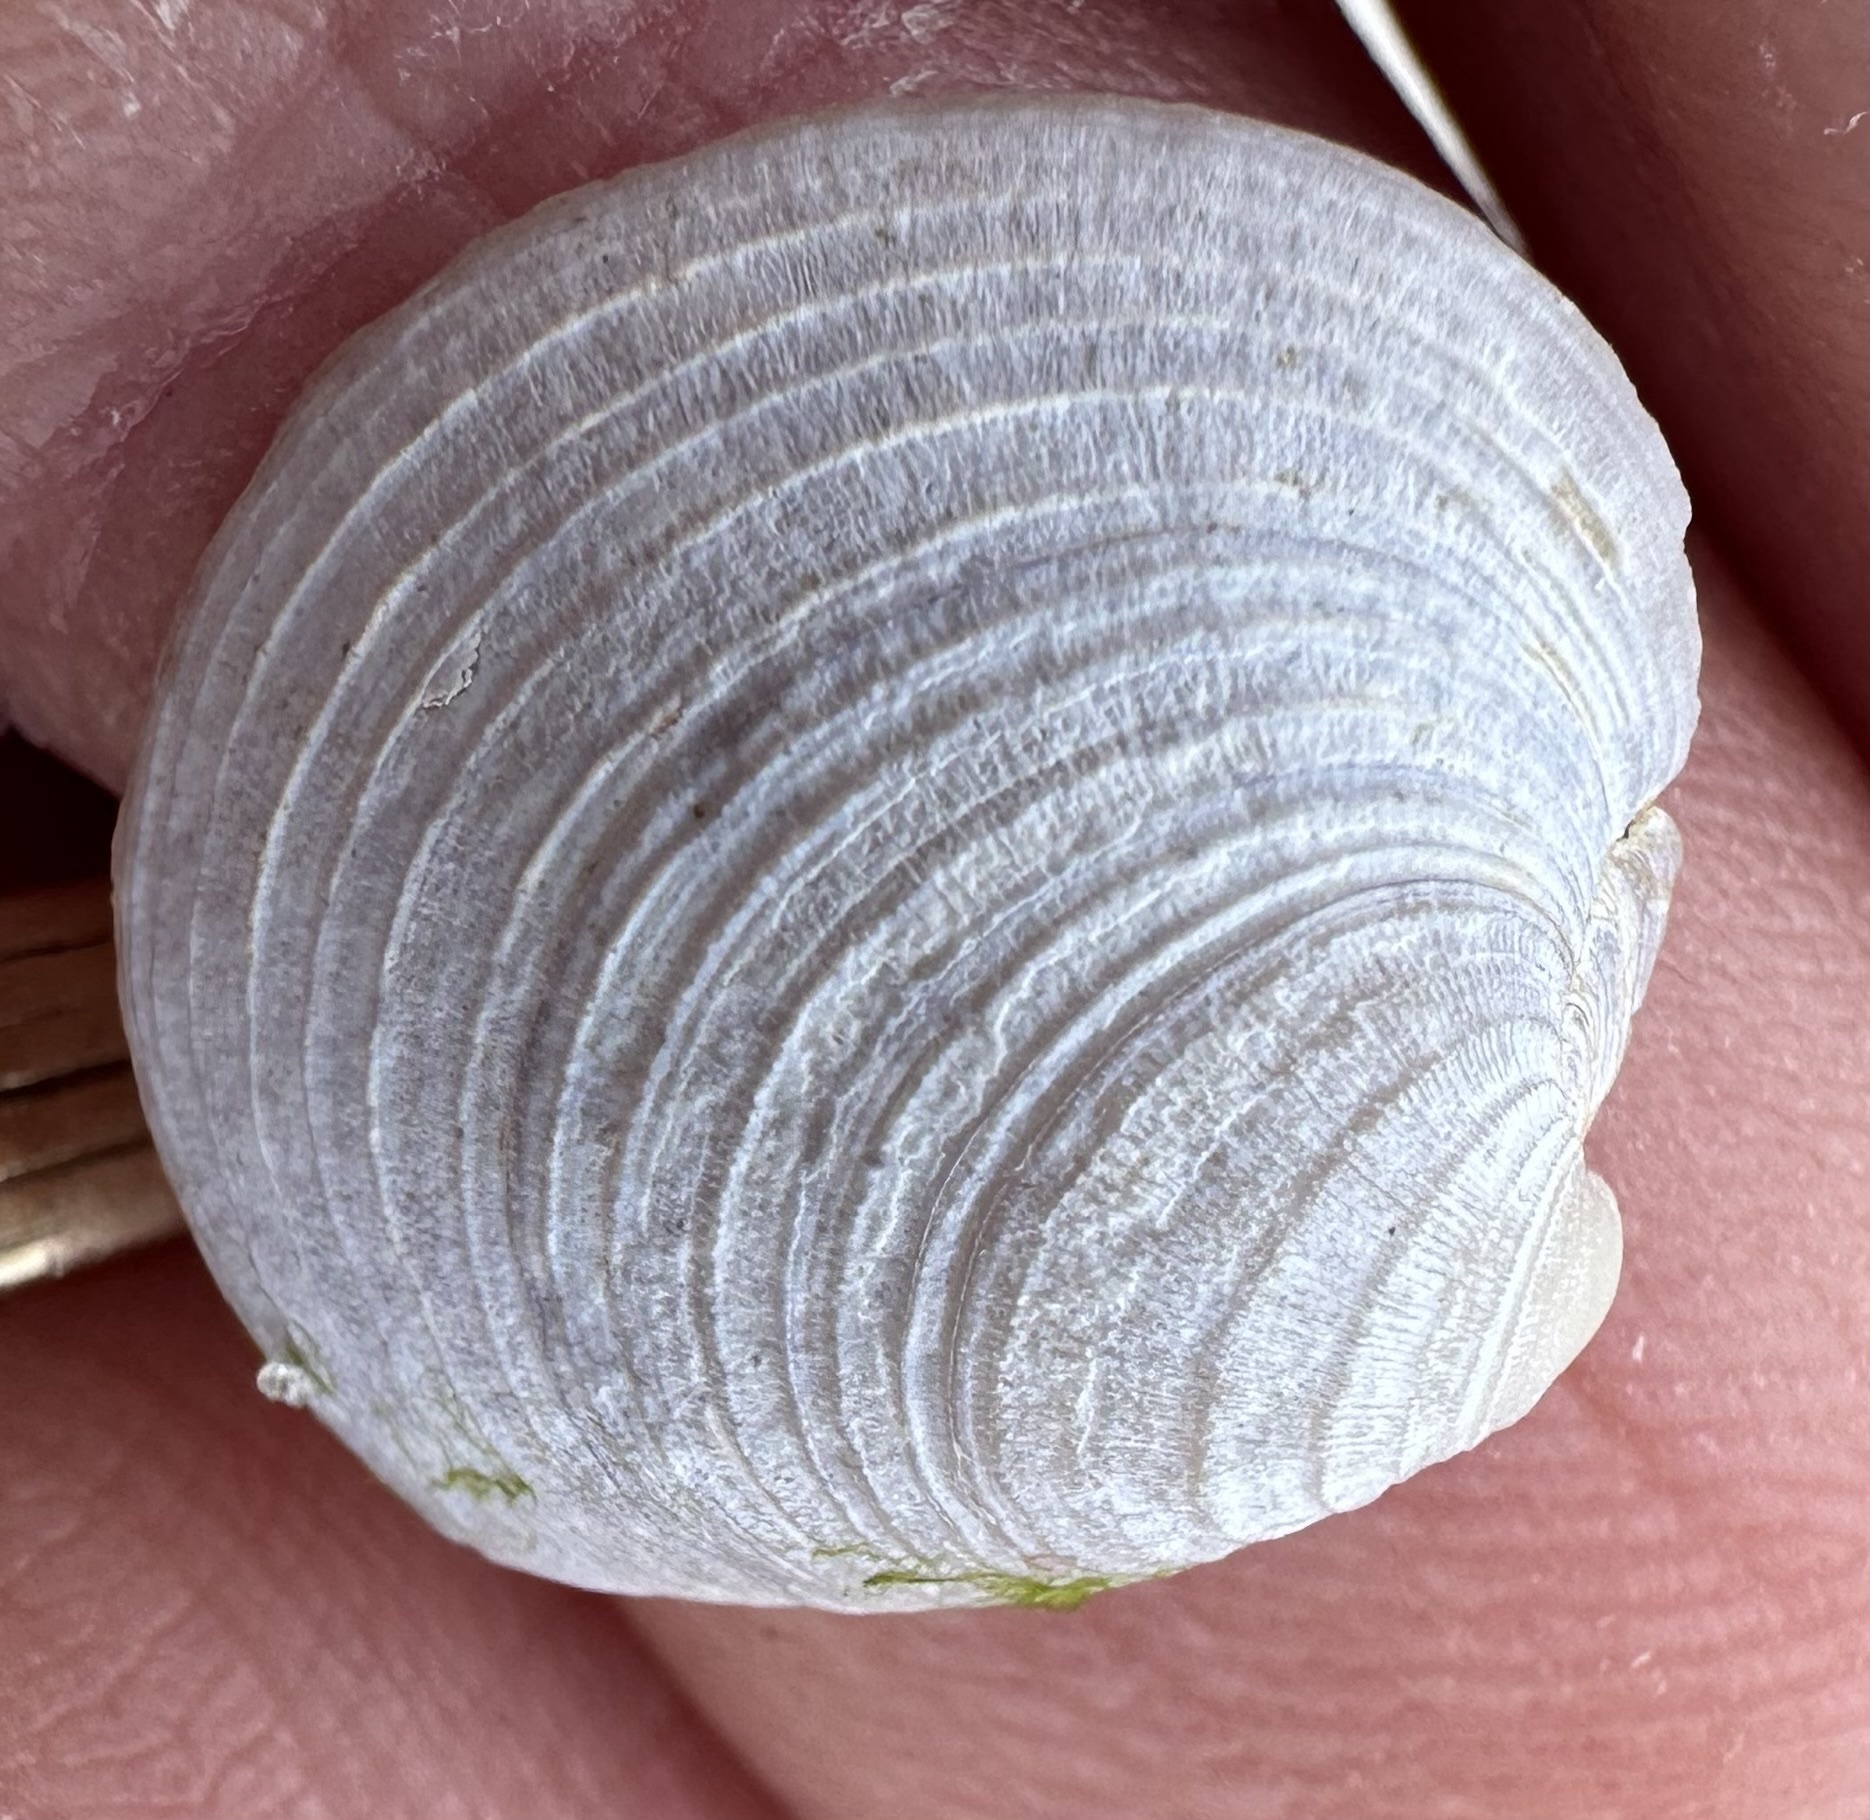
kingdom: Animalia
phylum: Mollusca
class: Bivalvia
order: Venerida
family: Veneridae
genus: Mercenaria
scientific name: Mercenaria mercenaria
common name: American hard-shelled clam
